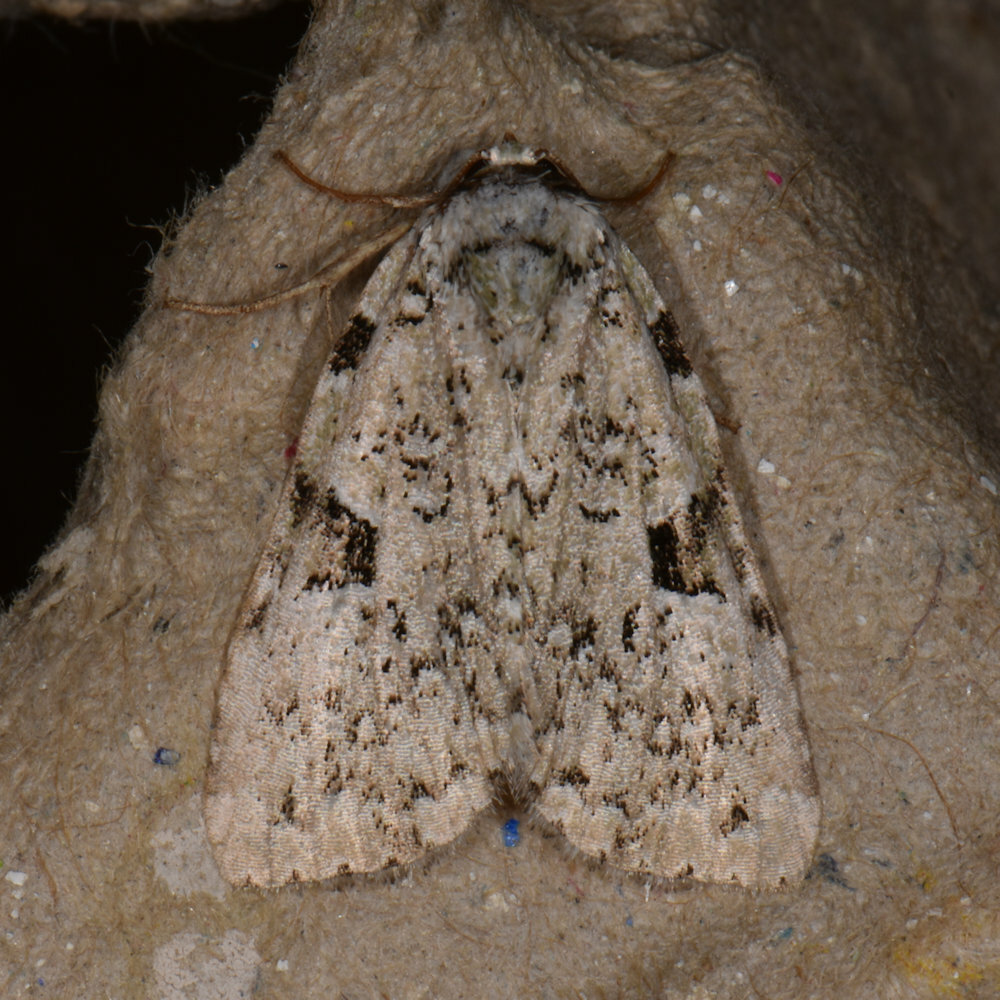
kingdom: Animalia
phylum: Arthropoda
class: Insecta
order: Lepidoptera
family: Noctuidae
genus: Leuconycta
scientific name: Leuconycta diphteroides
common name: Green leuconycta moth
